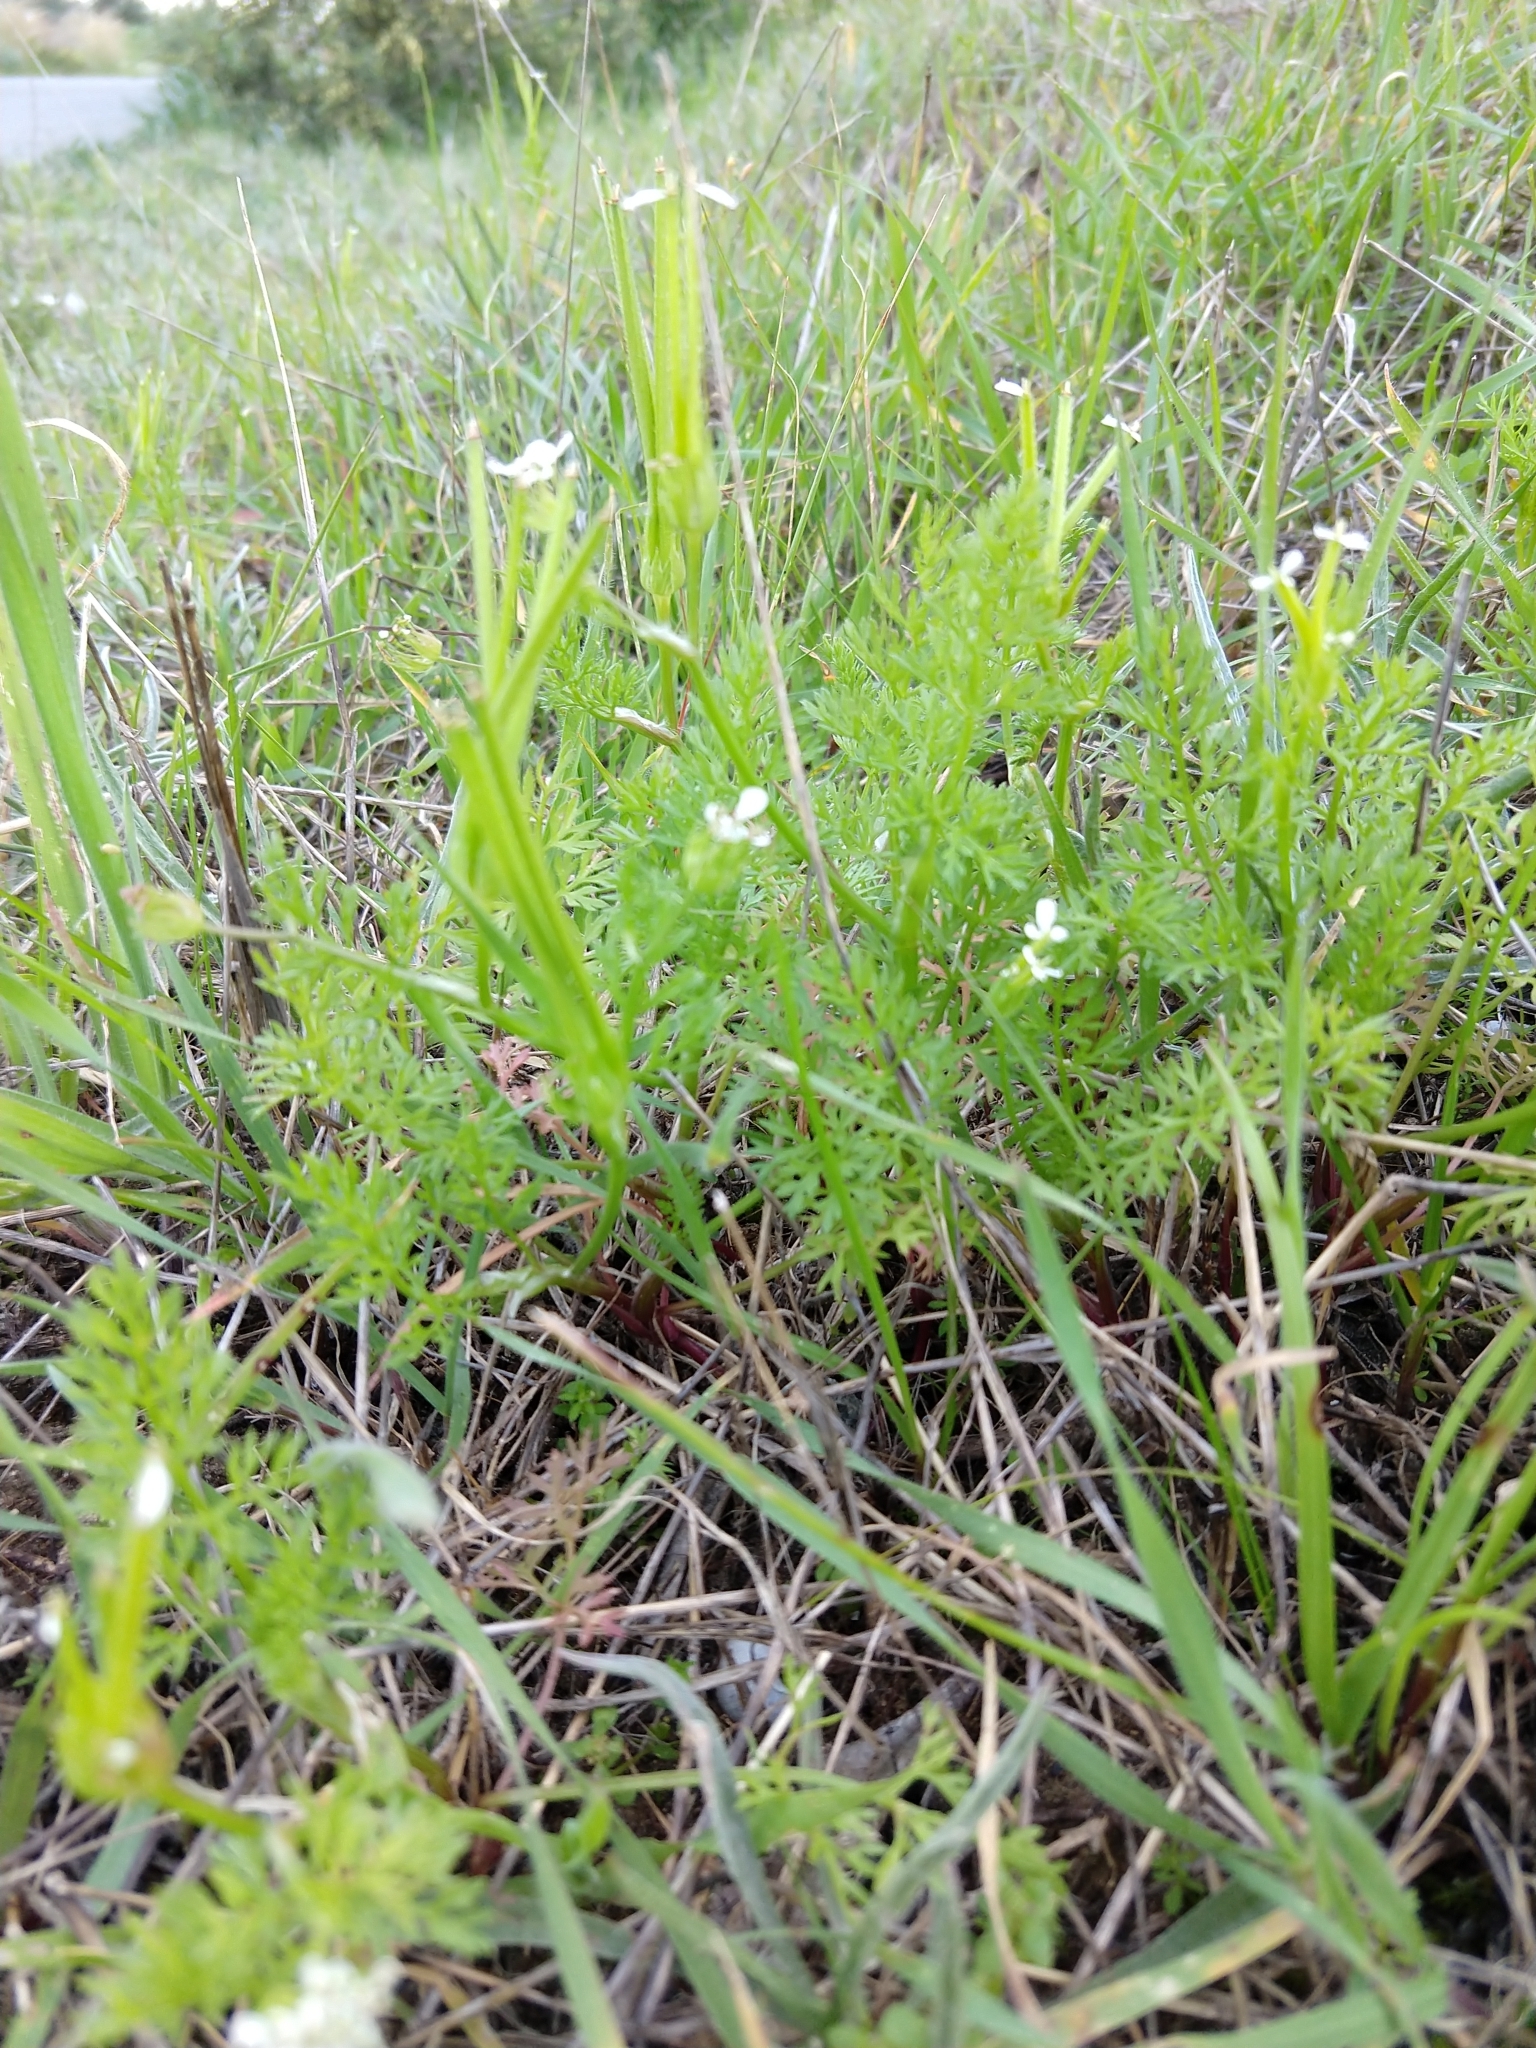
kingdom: Plantae
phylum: Tracheophyta
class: Magnoliopsida
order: Apiales
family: Apiaceae
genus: Scandix
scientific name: Scandix pecten-veneris
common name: Shepherd's-needle
